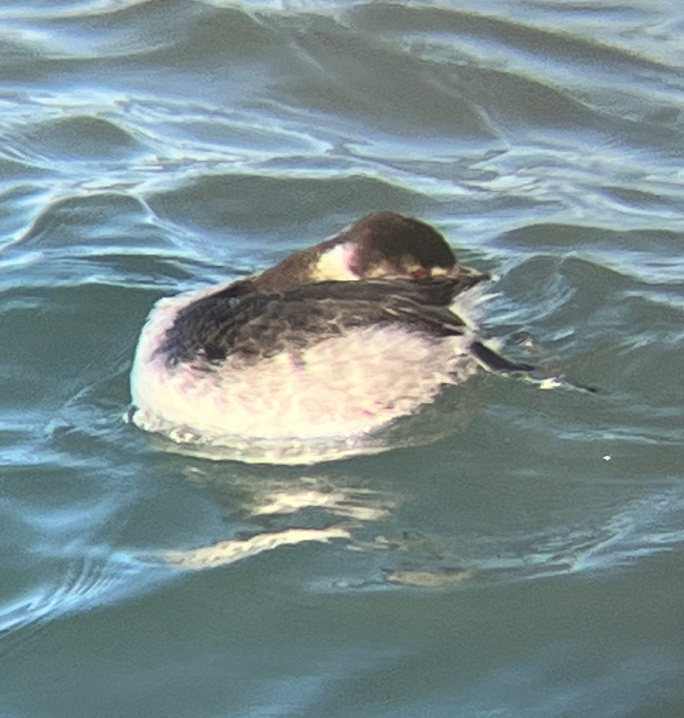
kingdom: Animalia
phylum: Chordata
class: Aves
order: Podicipediformes
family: Podicipedidae
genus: Podiceps
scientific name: Podiceps auritus
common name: Horned grebe
